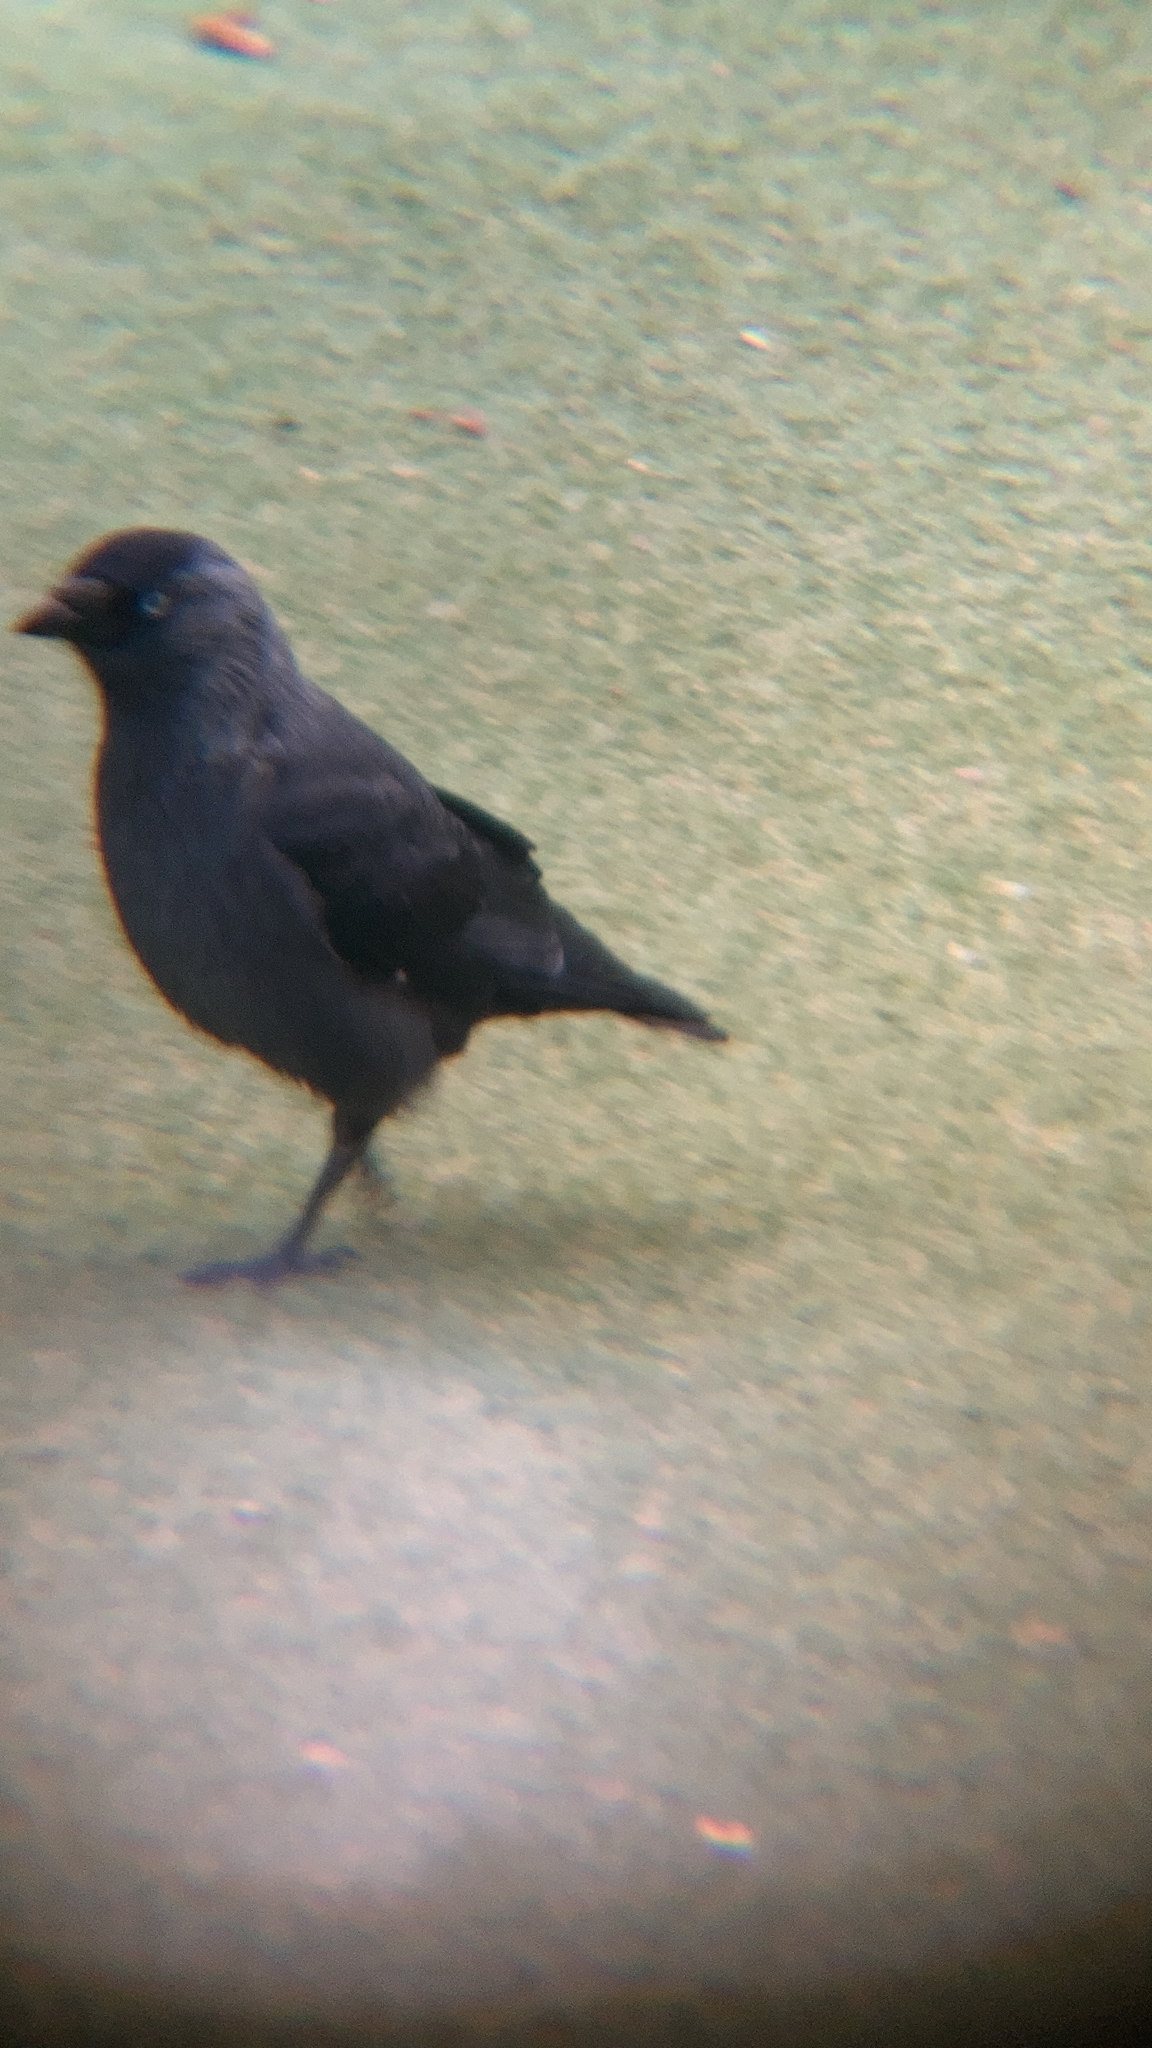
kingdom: Animalia
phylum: Chordata
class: Aves
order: Passeriformes
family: Corvidae
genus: Coloeus
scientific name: Coloeus monedula
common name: Western jackdaw
